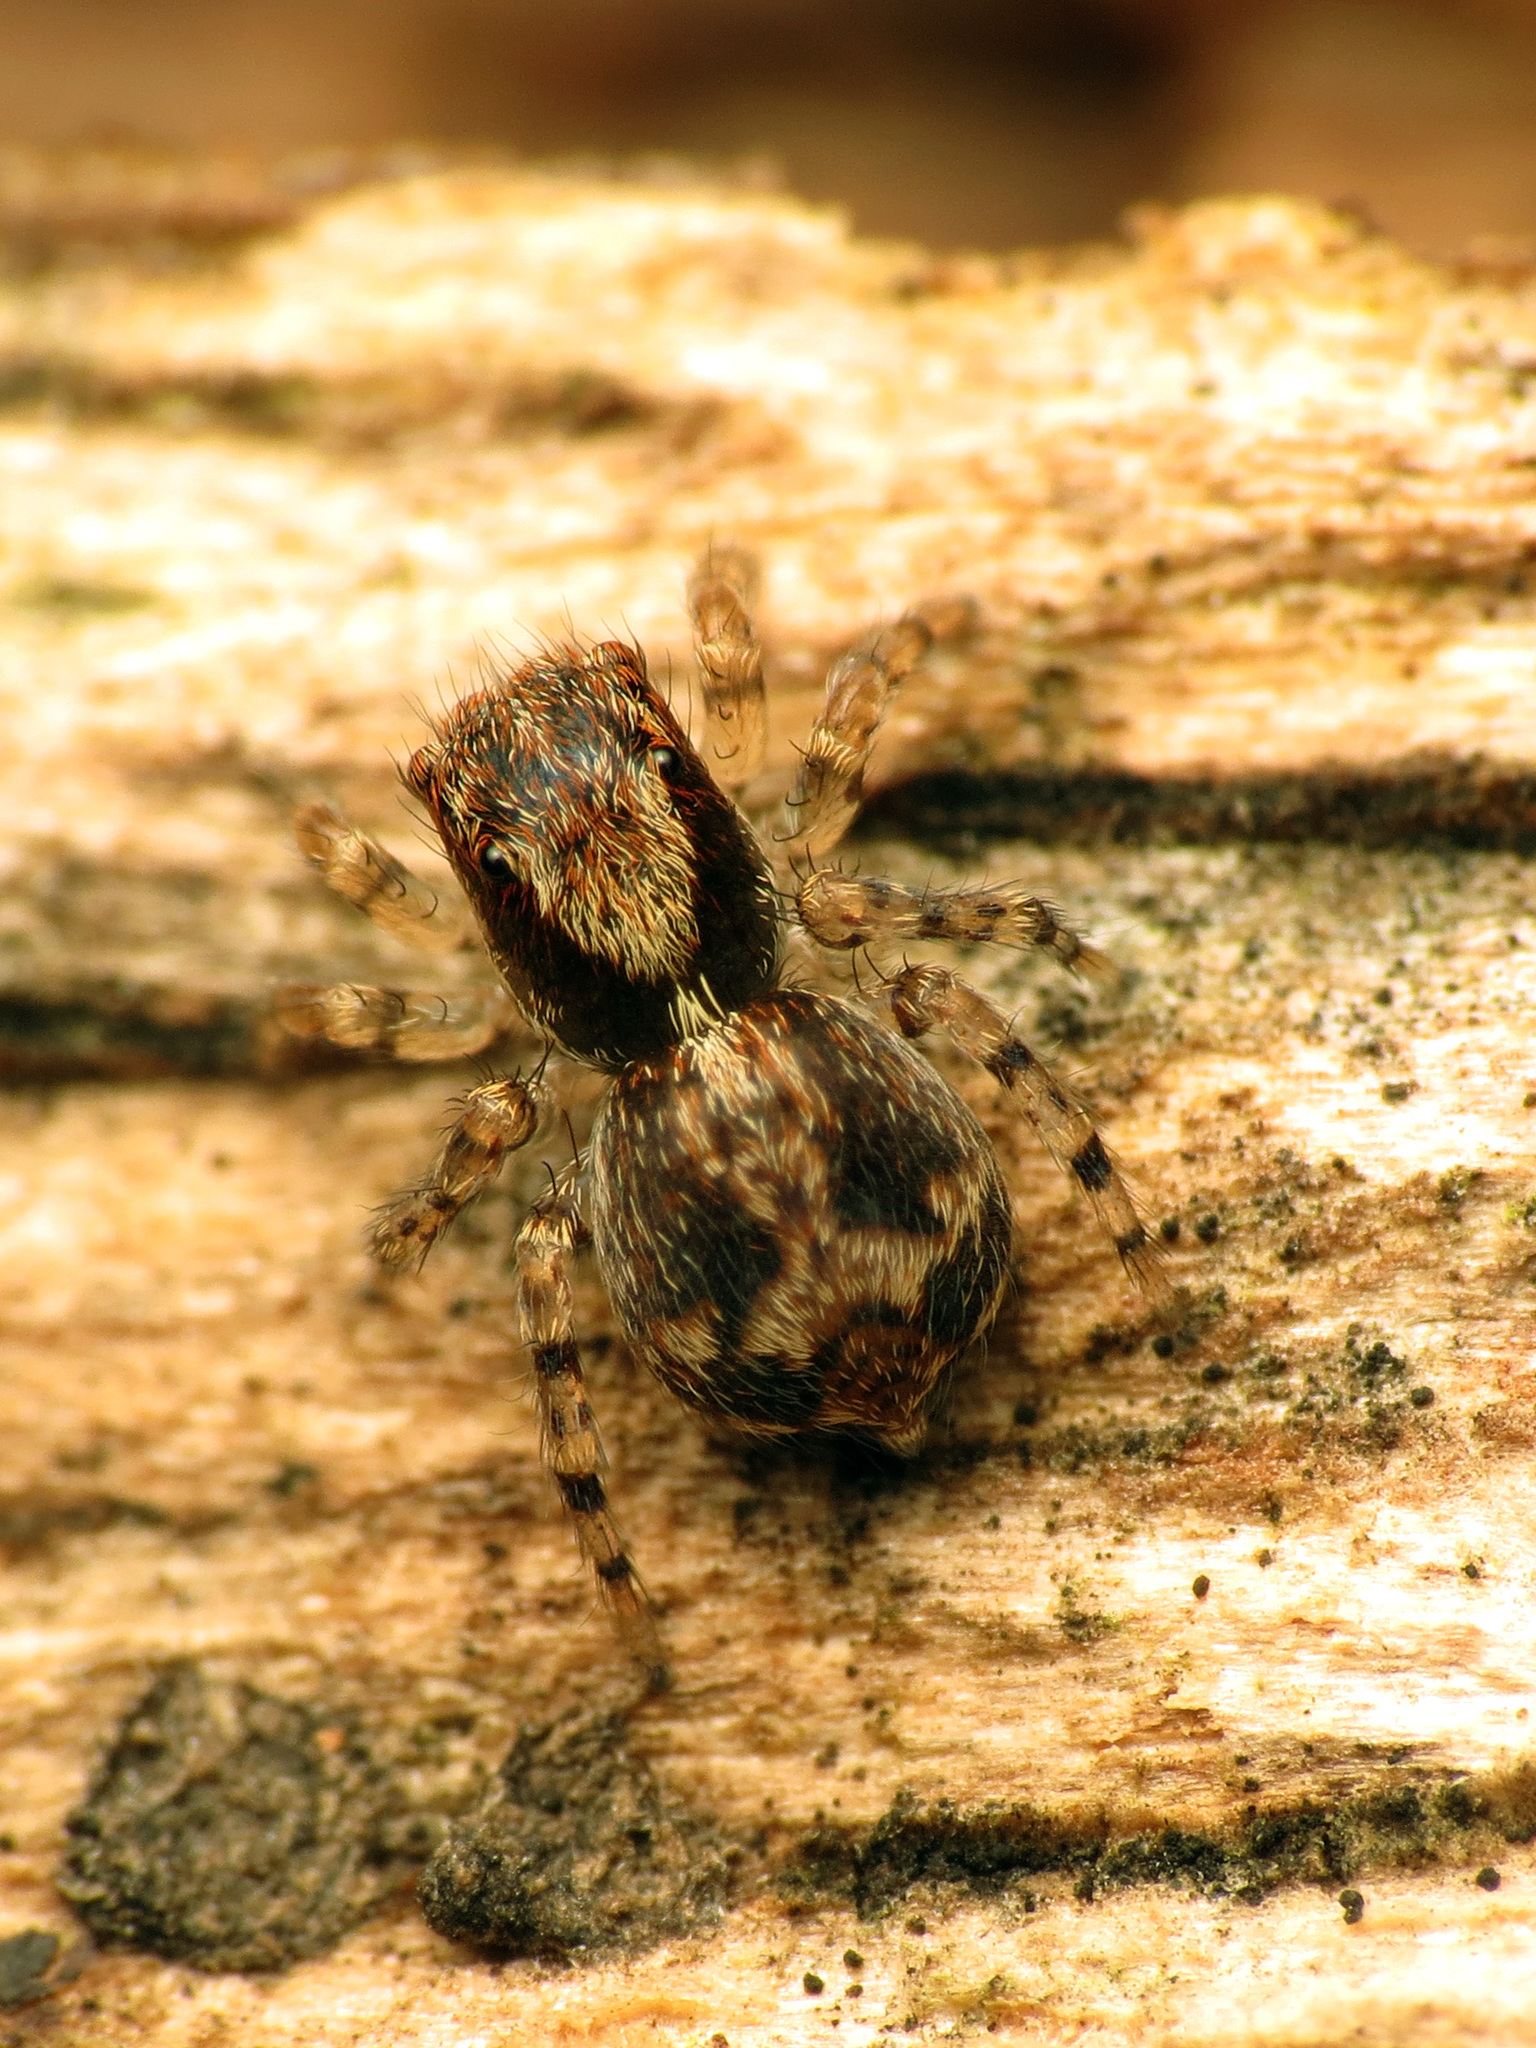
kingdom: Animalia
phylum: Arthropoda
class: Arachnida
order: Araneae
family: Salticidae
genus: Naphrys
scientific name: Naphrys pulex
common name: Flea jumping spider
